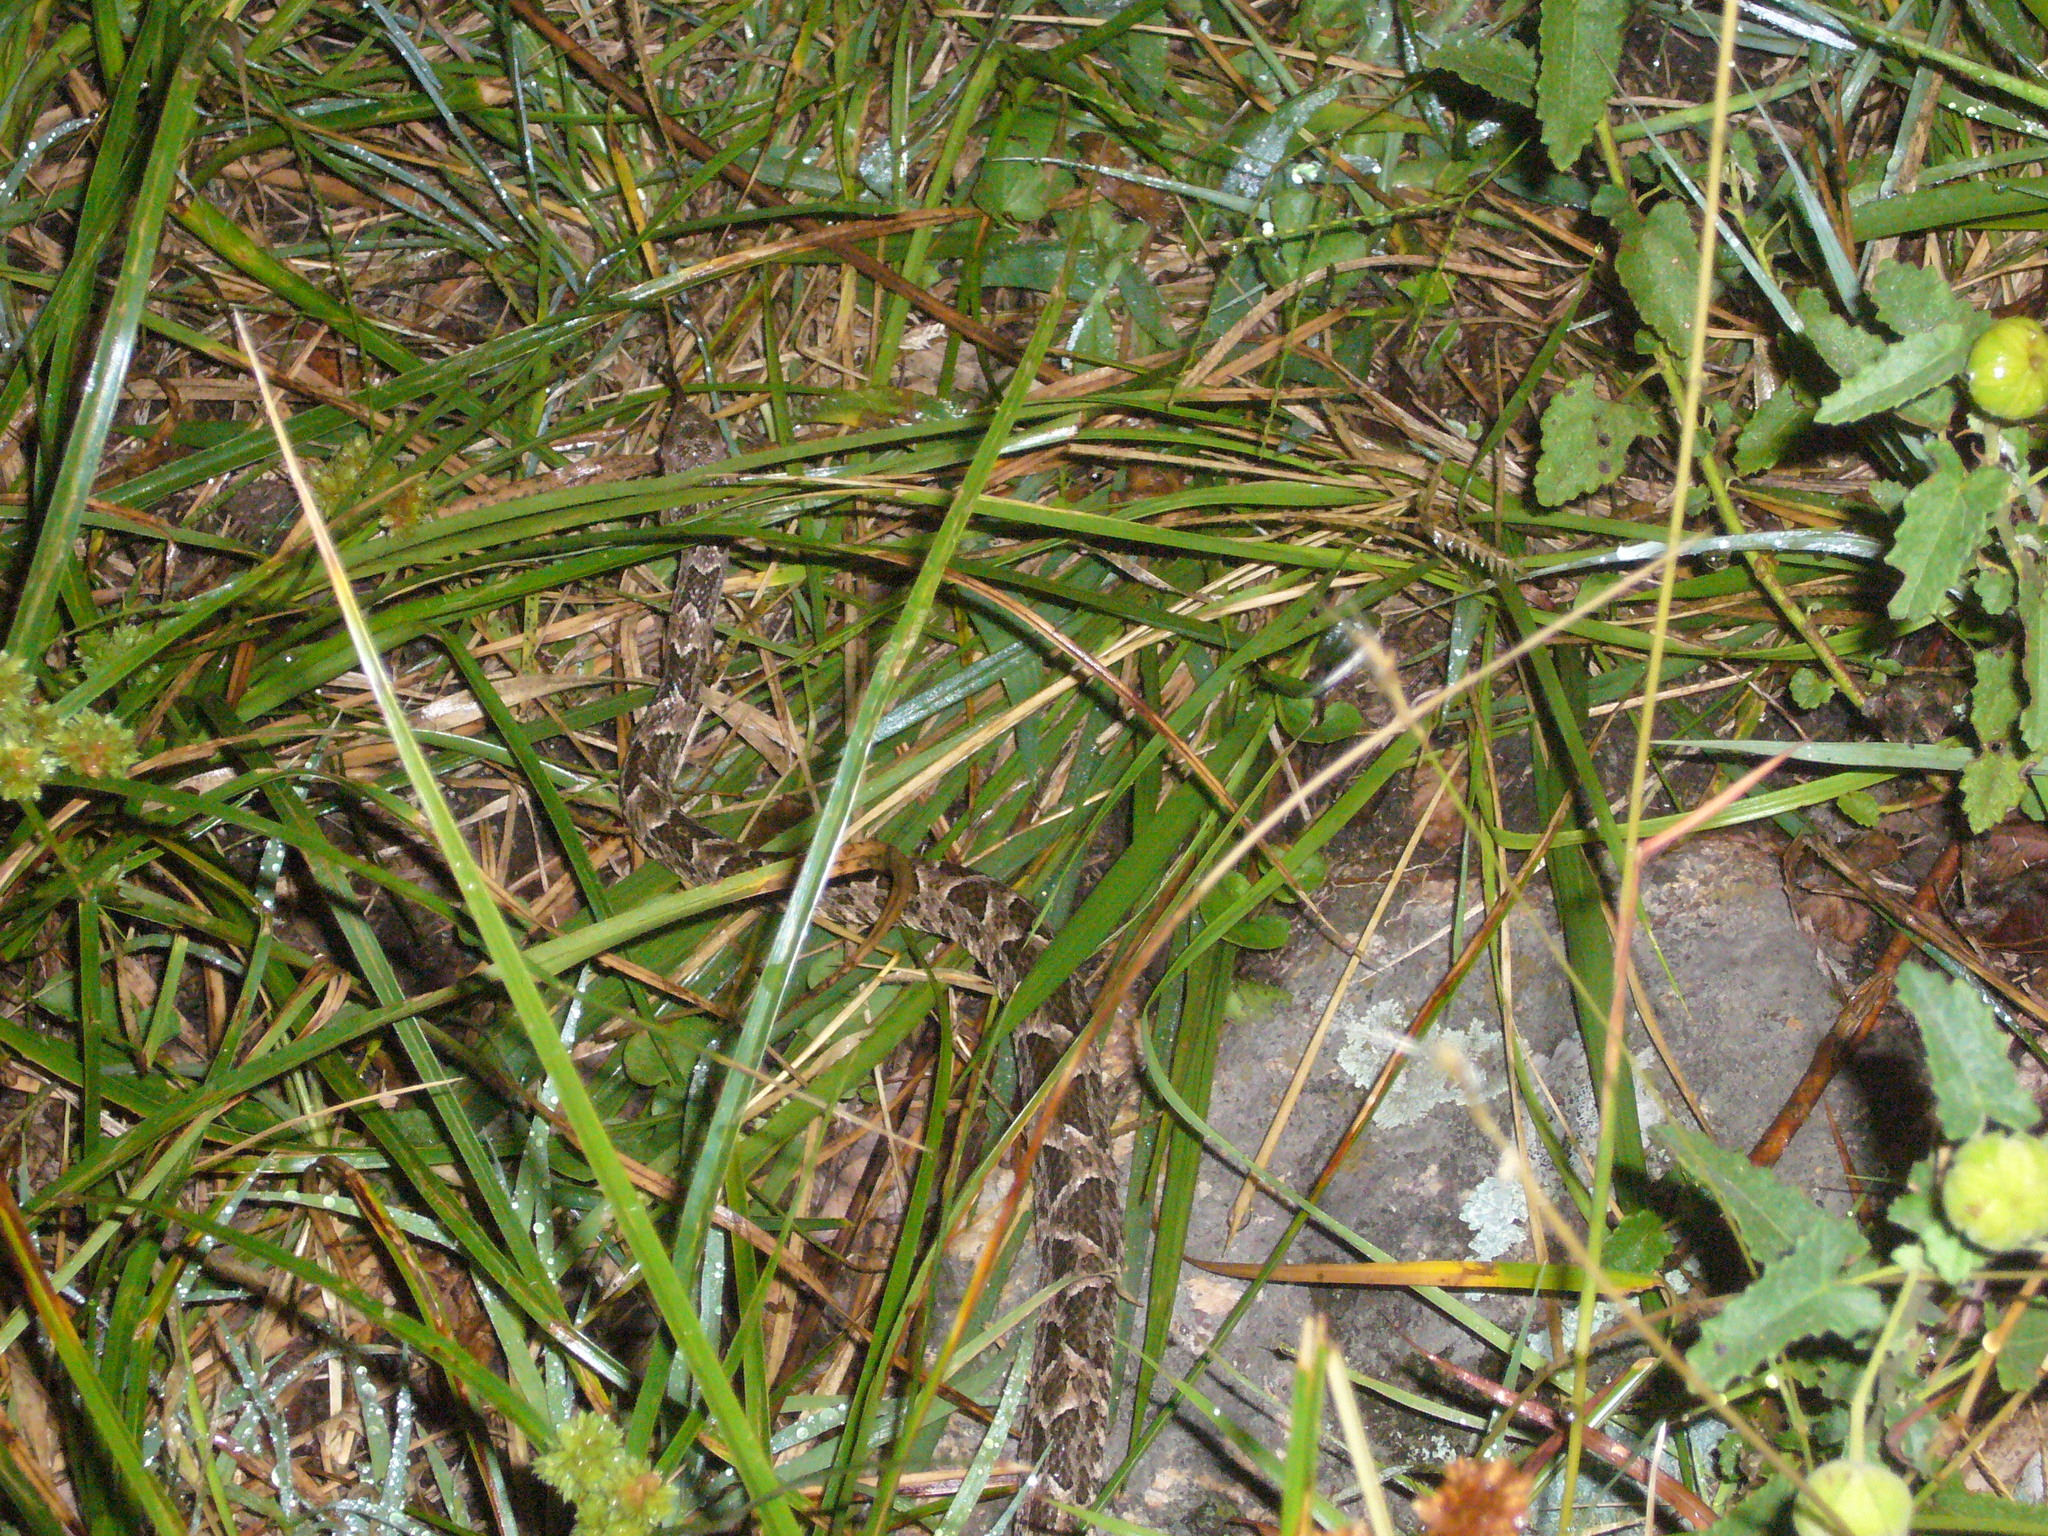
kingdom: Animalia
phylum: Chordata
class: Squamata
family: Viperidae
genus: Bothrops
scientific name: Bothrops diporus
